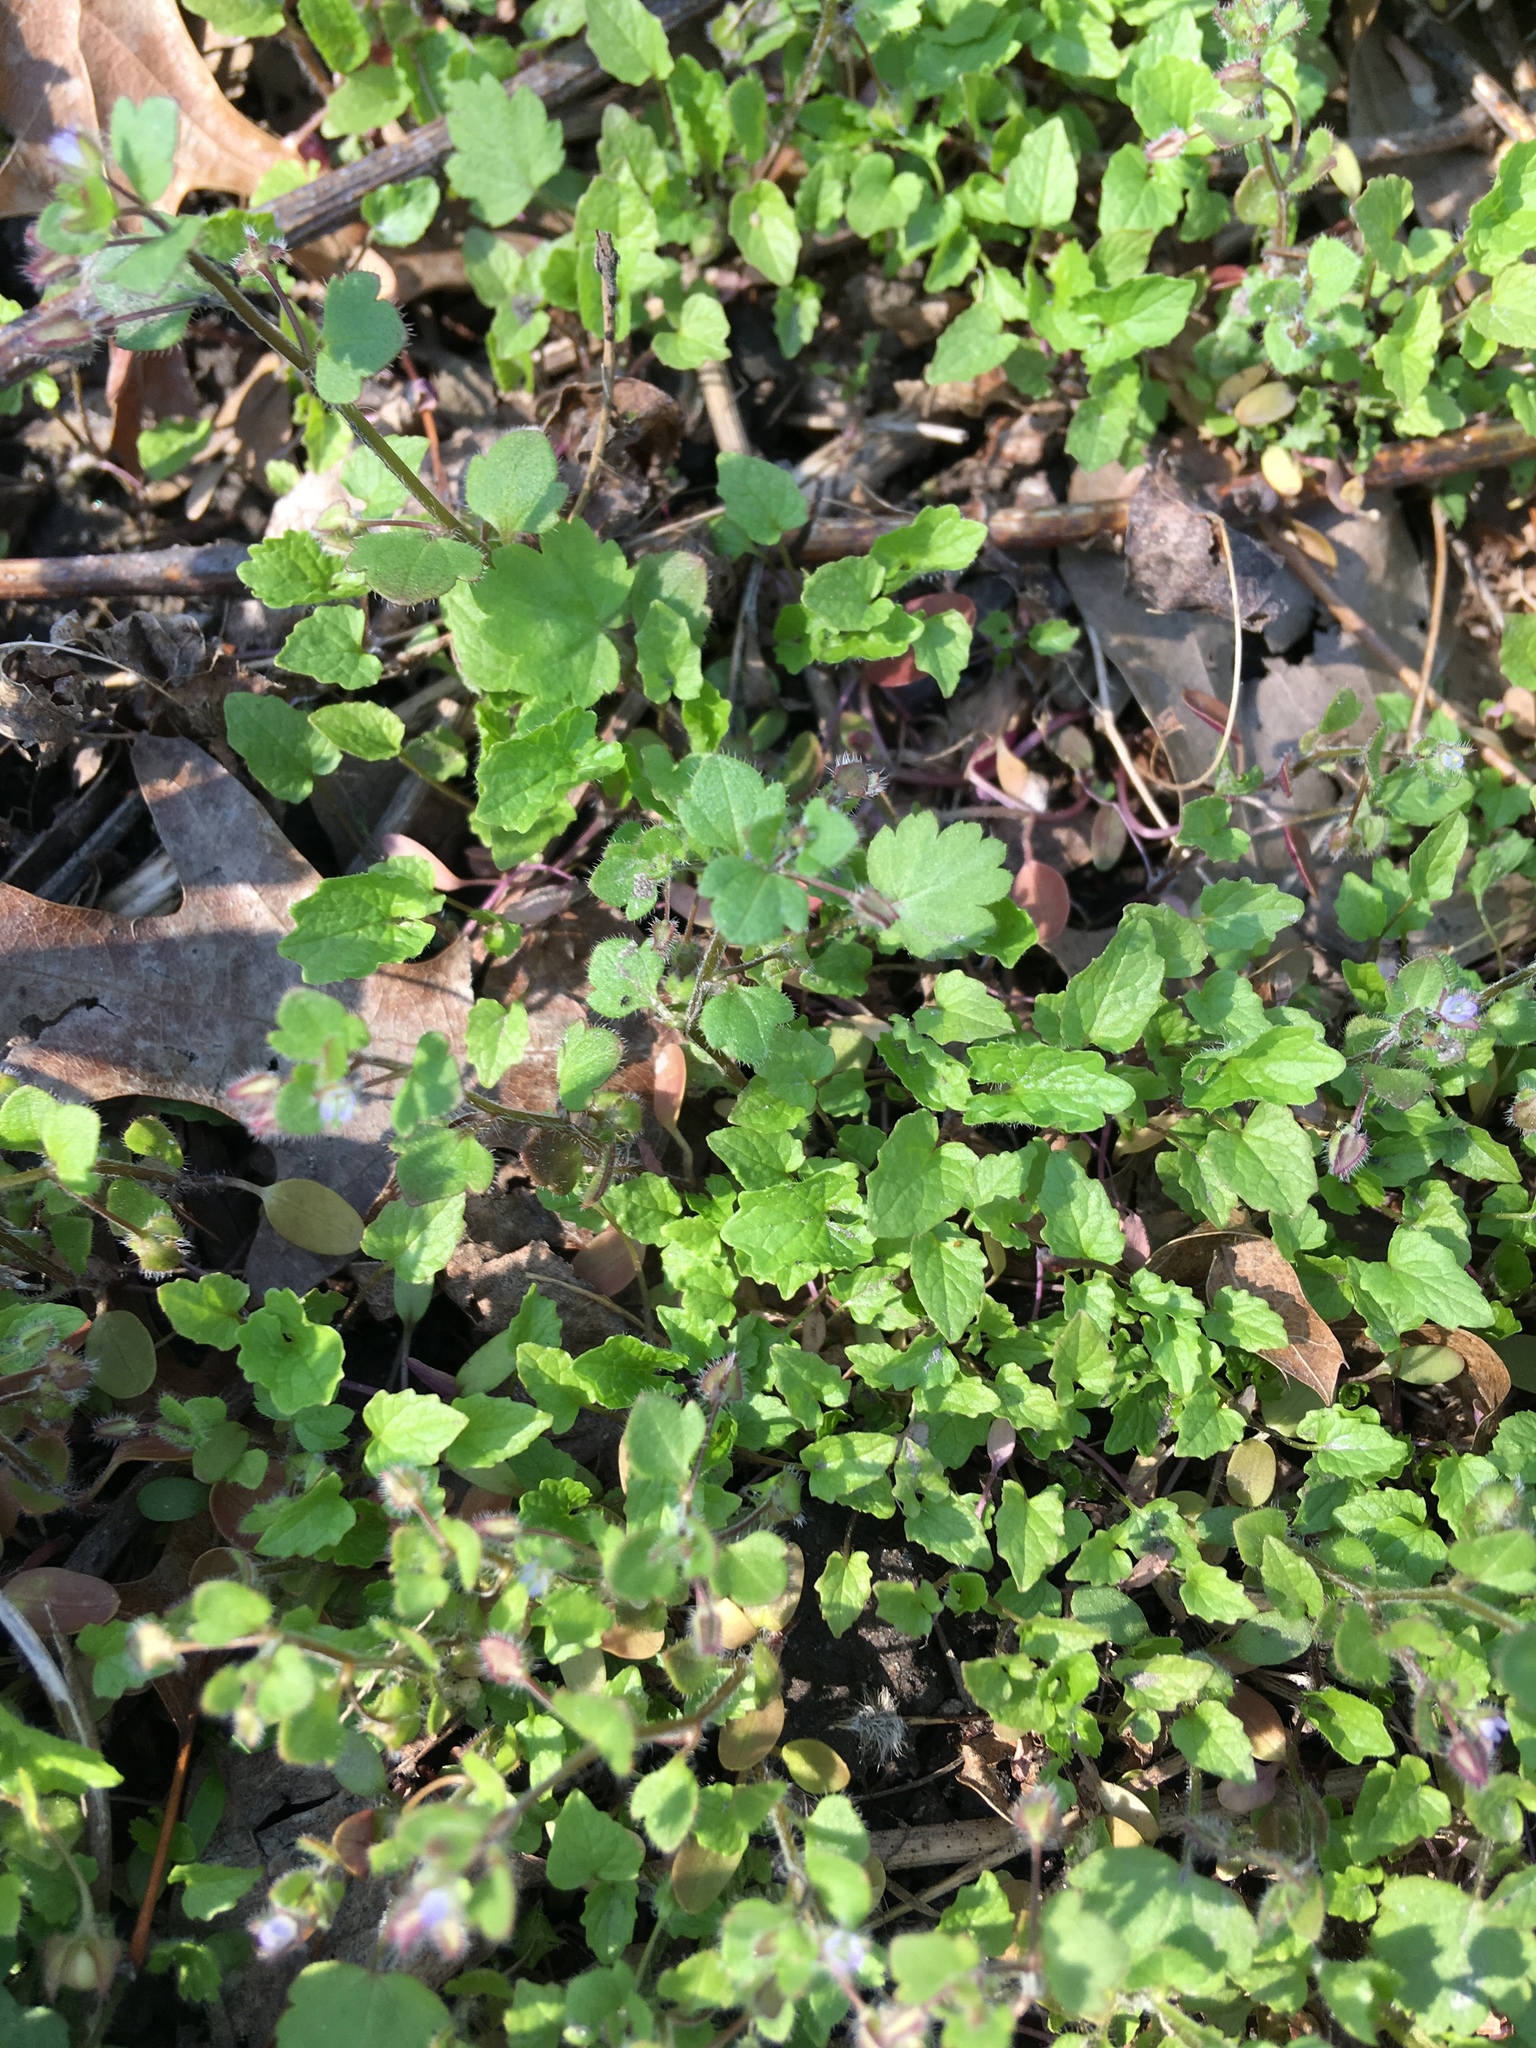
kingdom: Plantae
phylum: Tracheophyta
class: Magnoliopsida
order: Lamiales
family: Plantaginaceae
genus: Veronica
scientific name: Veronica hederifolia
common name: Ivy-leaved speedwell
